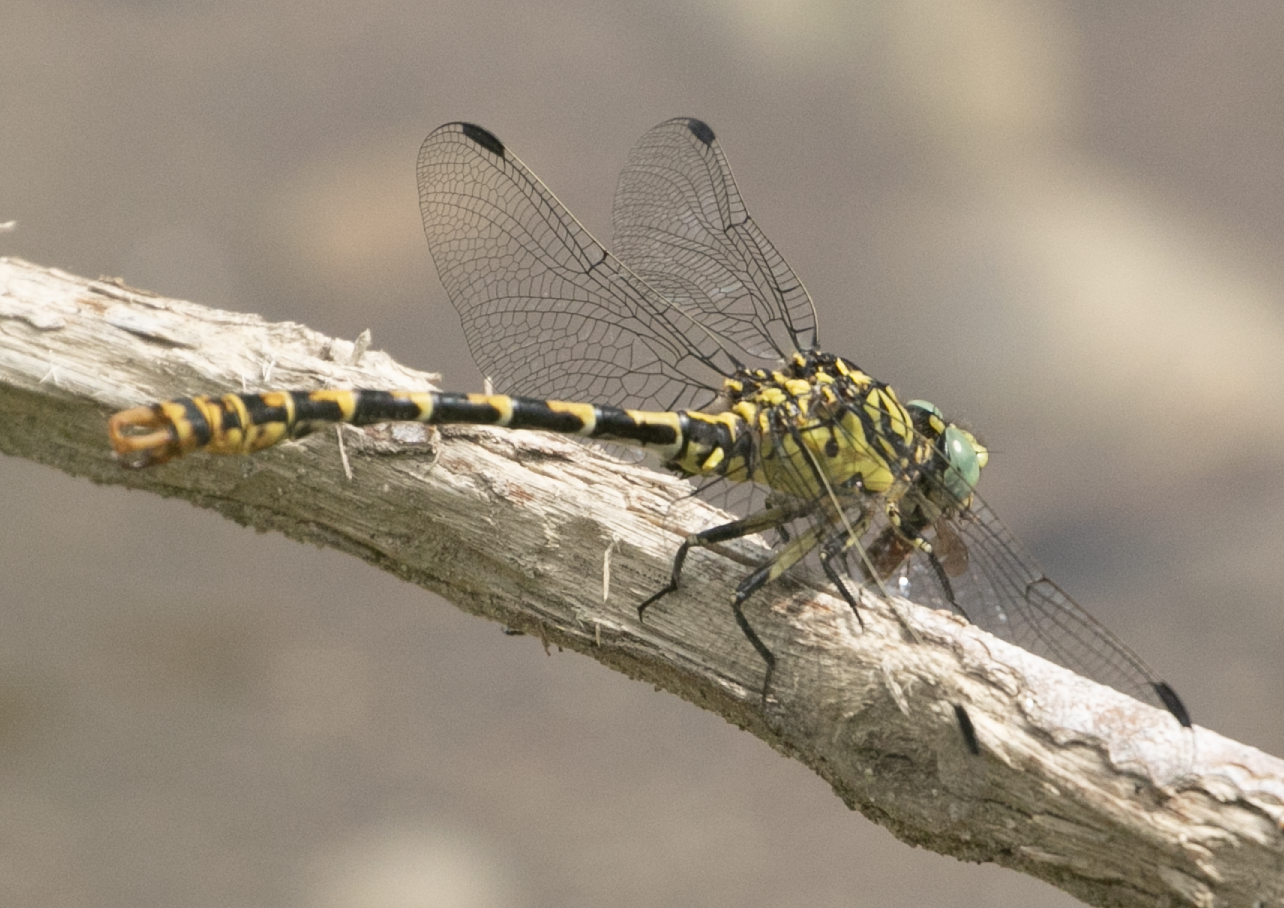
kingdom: Animalia
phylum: Arthropoda
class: Insecta
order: Odonata
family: Gomphidae
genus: Onychogomphus
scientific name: Onychogomphus forcipatus
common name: Small pincertail
